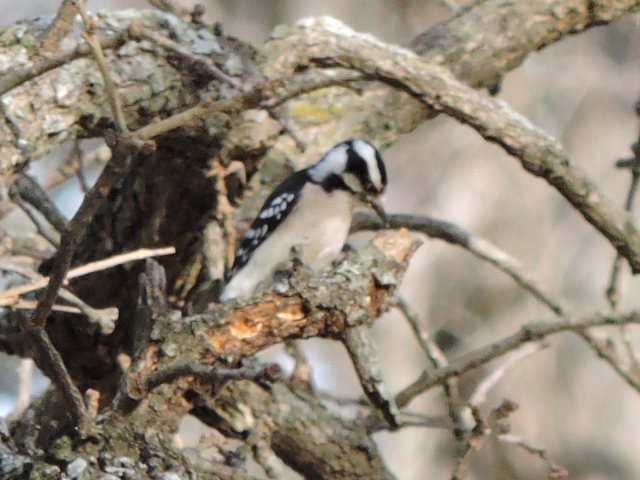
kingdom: Animalia
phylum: Chordata
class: Aves
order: Piciformes
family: Picidae
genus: Dryobates
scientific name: Dryobates pubescens
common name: Downy woodpecker
